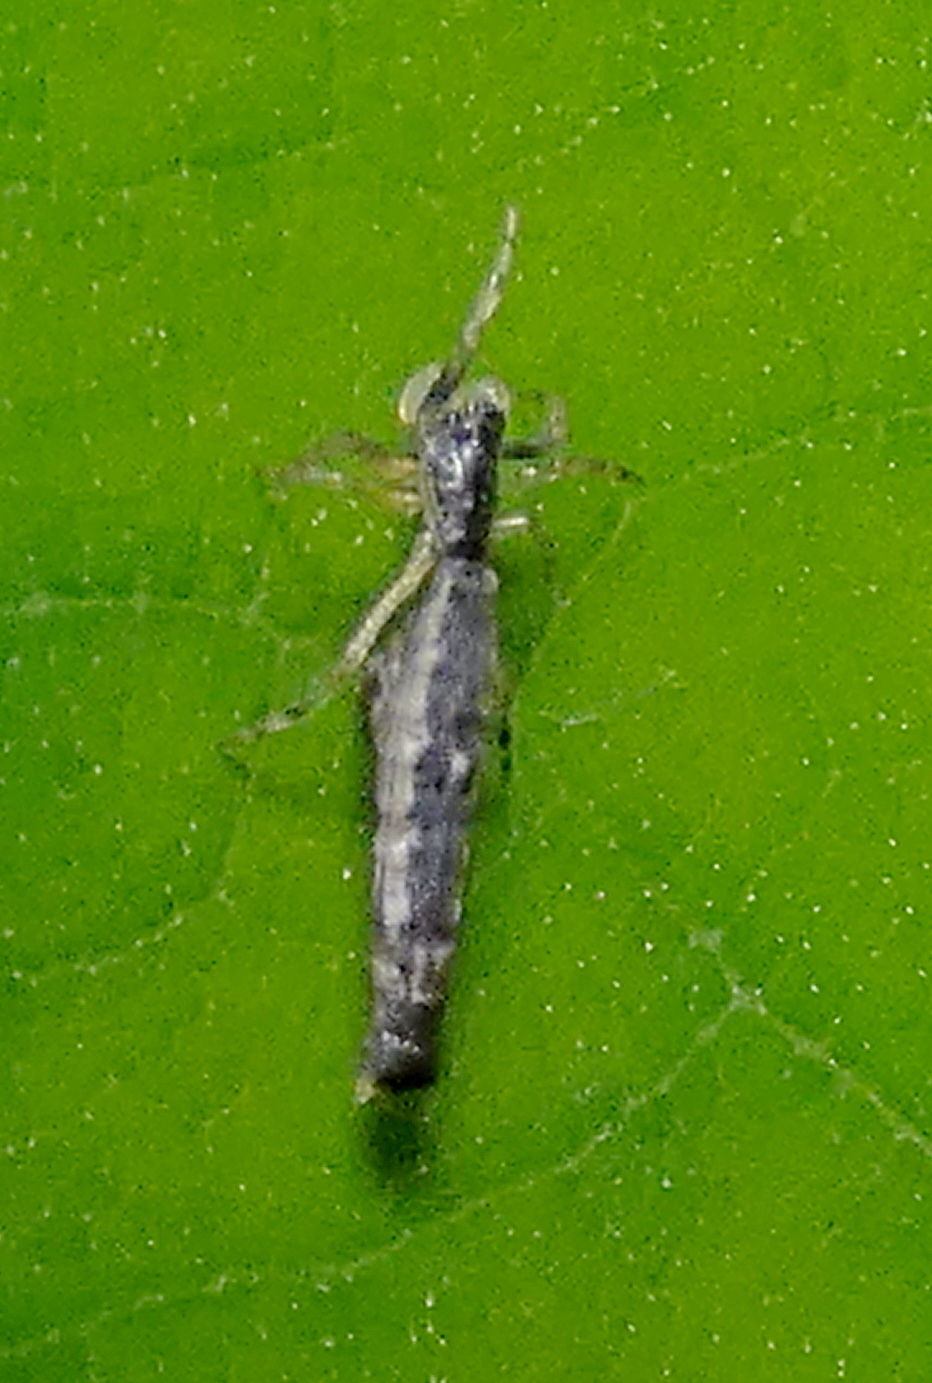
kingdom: Animalia
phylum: Arthropoda
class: Arachnida
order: Araneae
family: Araneidae
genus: Micrathena
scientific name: Micrathena horrida
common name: Orb weavers
